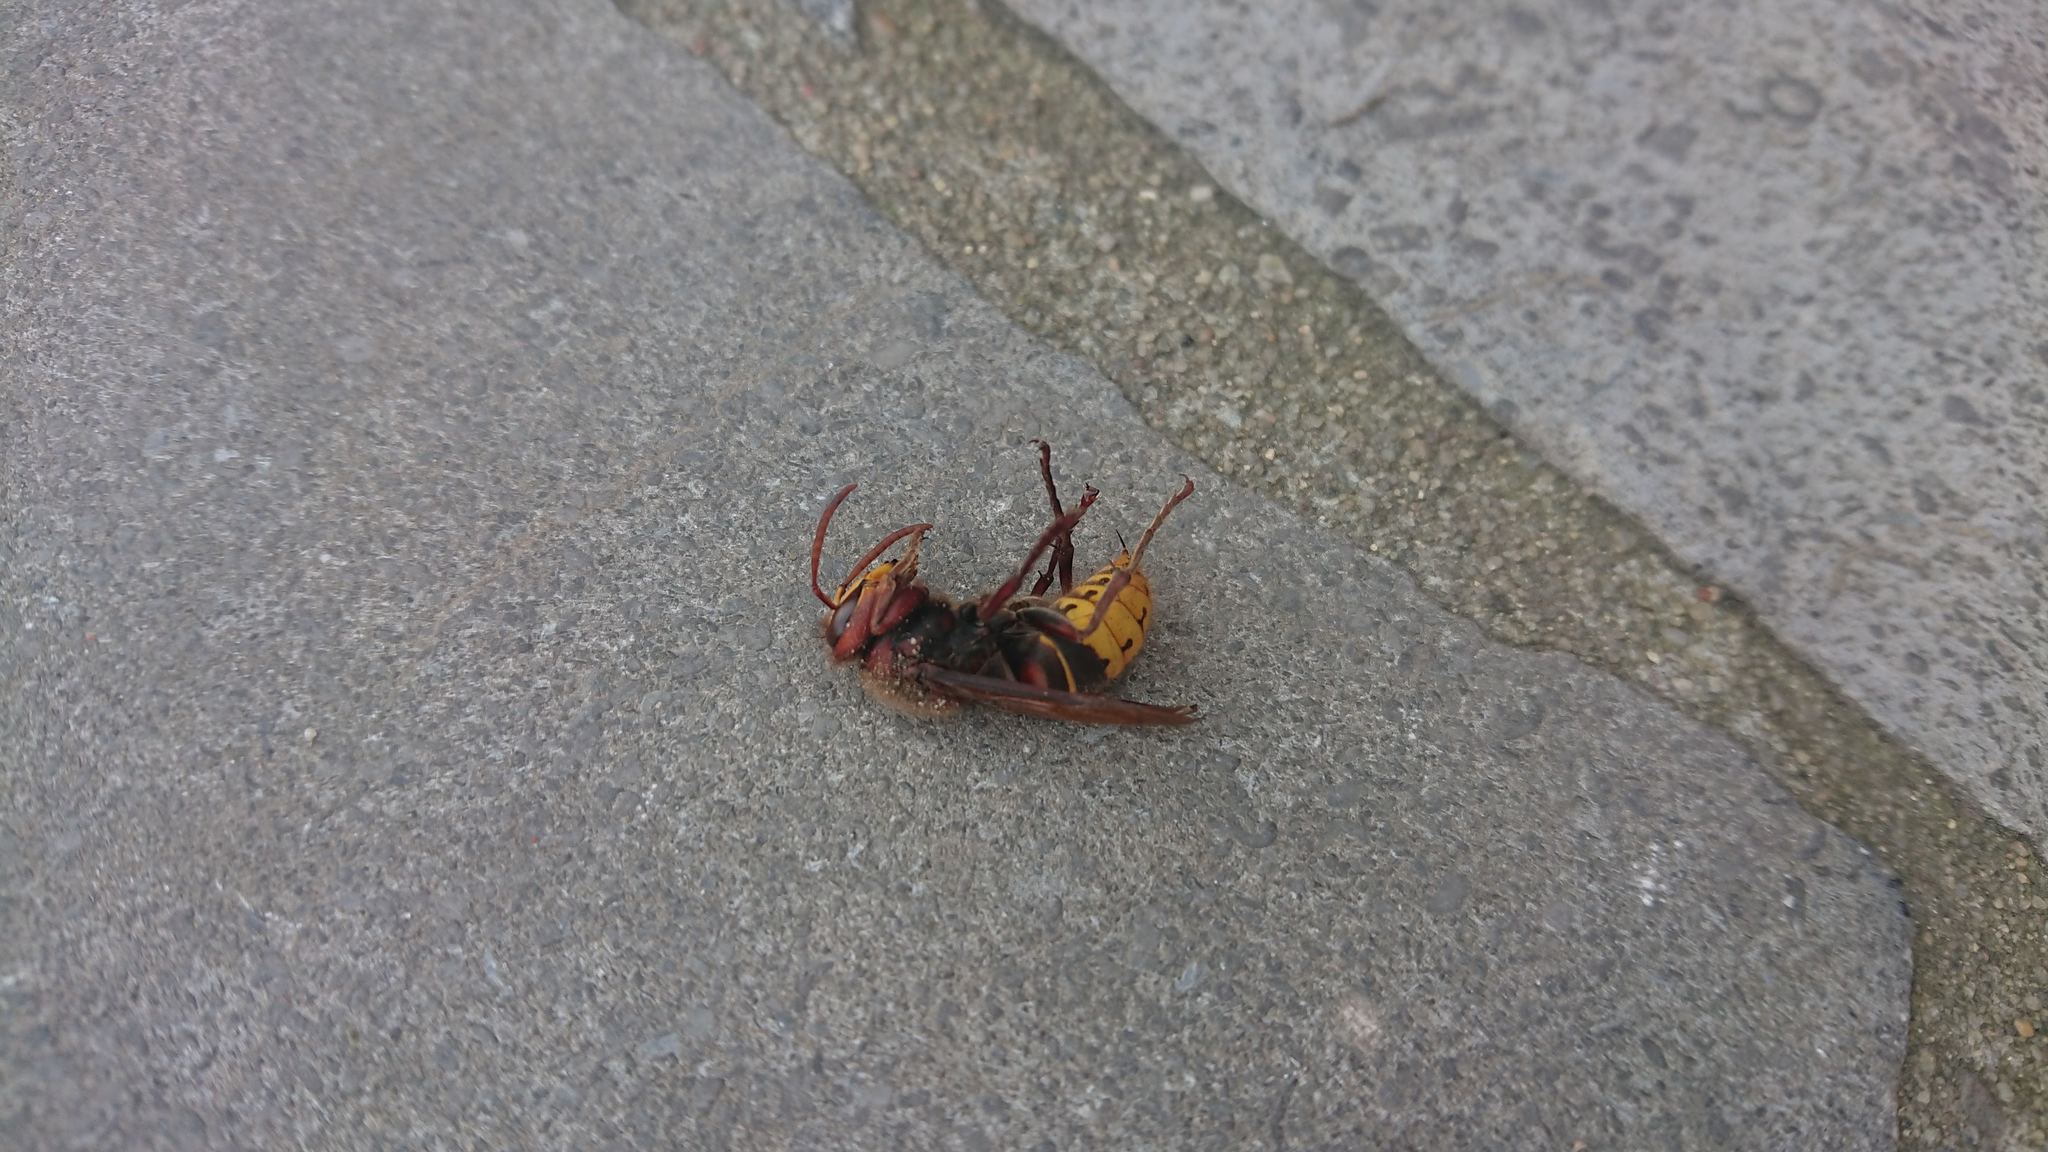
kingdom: Animalia
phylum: Arthropoda
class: Insecta
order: Hymenoptera
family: Vespidae
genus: Vespa
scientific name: Vespa crabro
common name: Hornet
